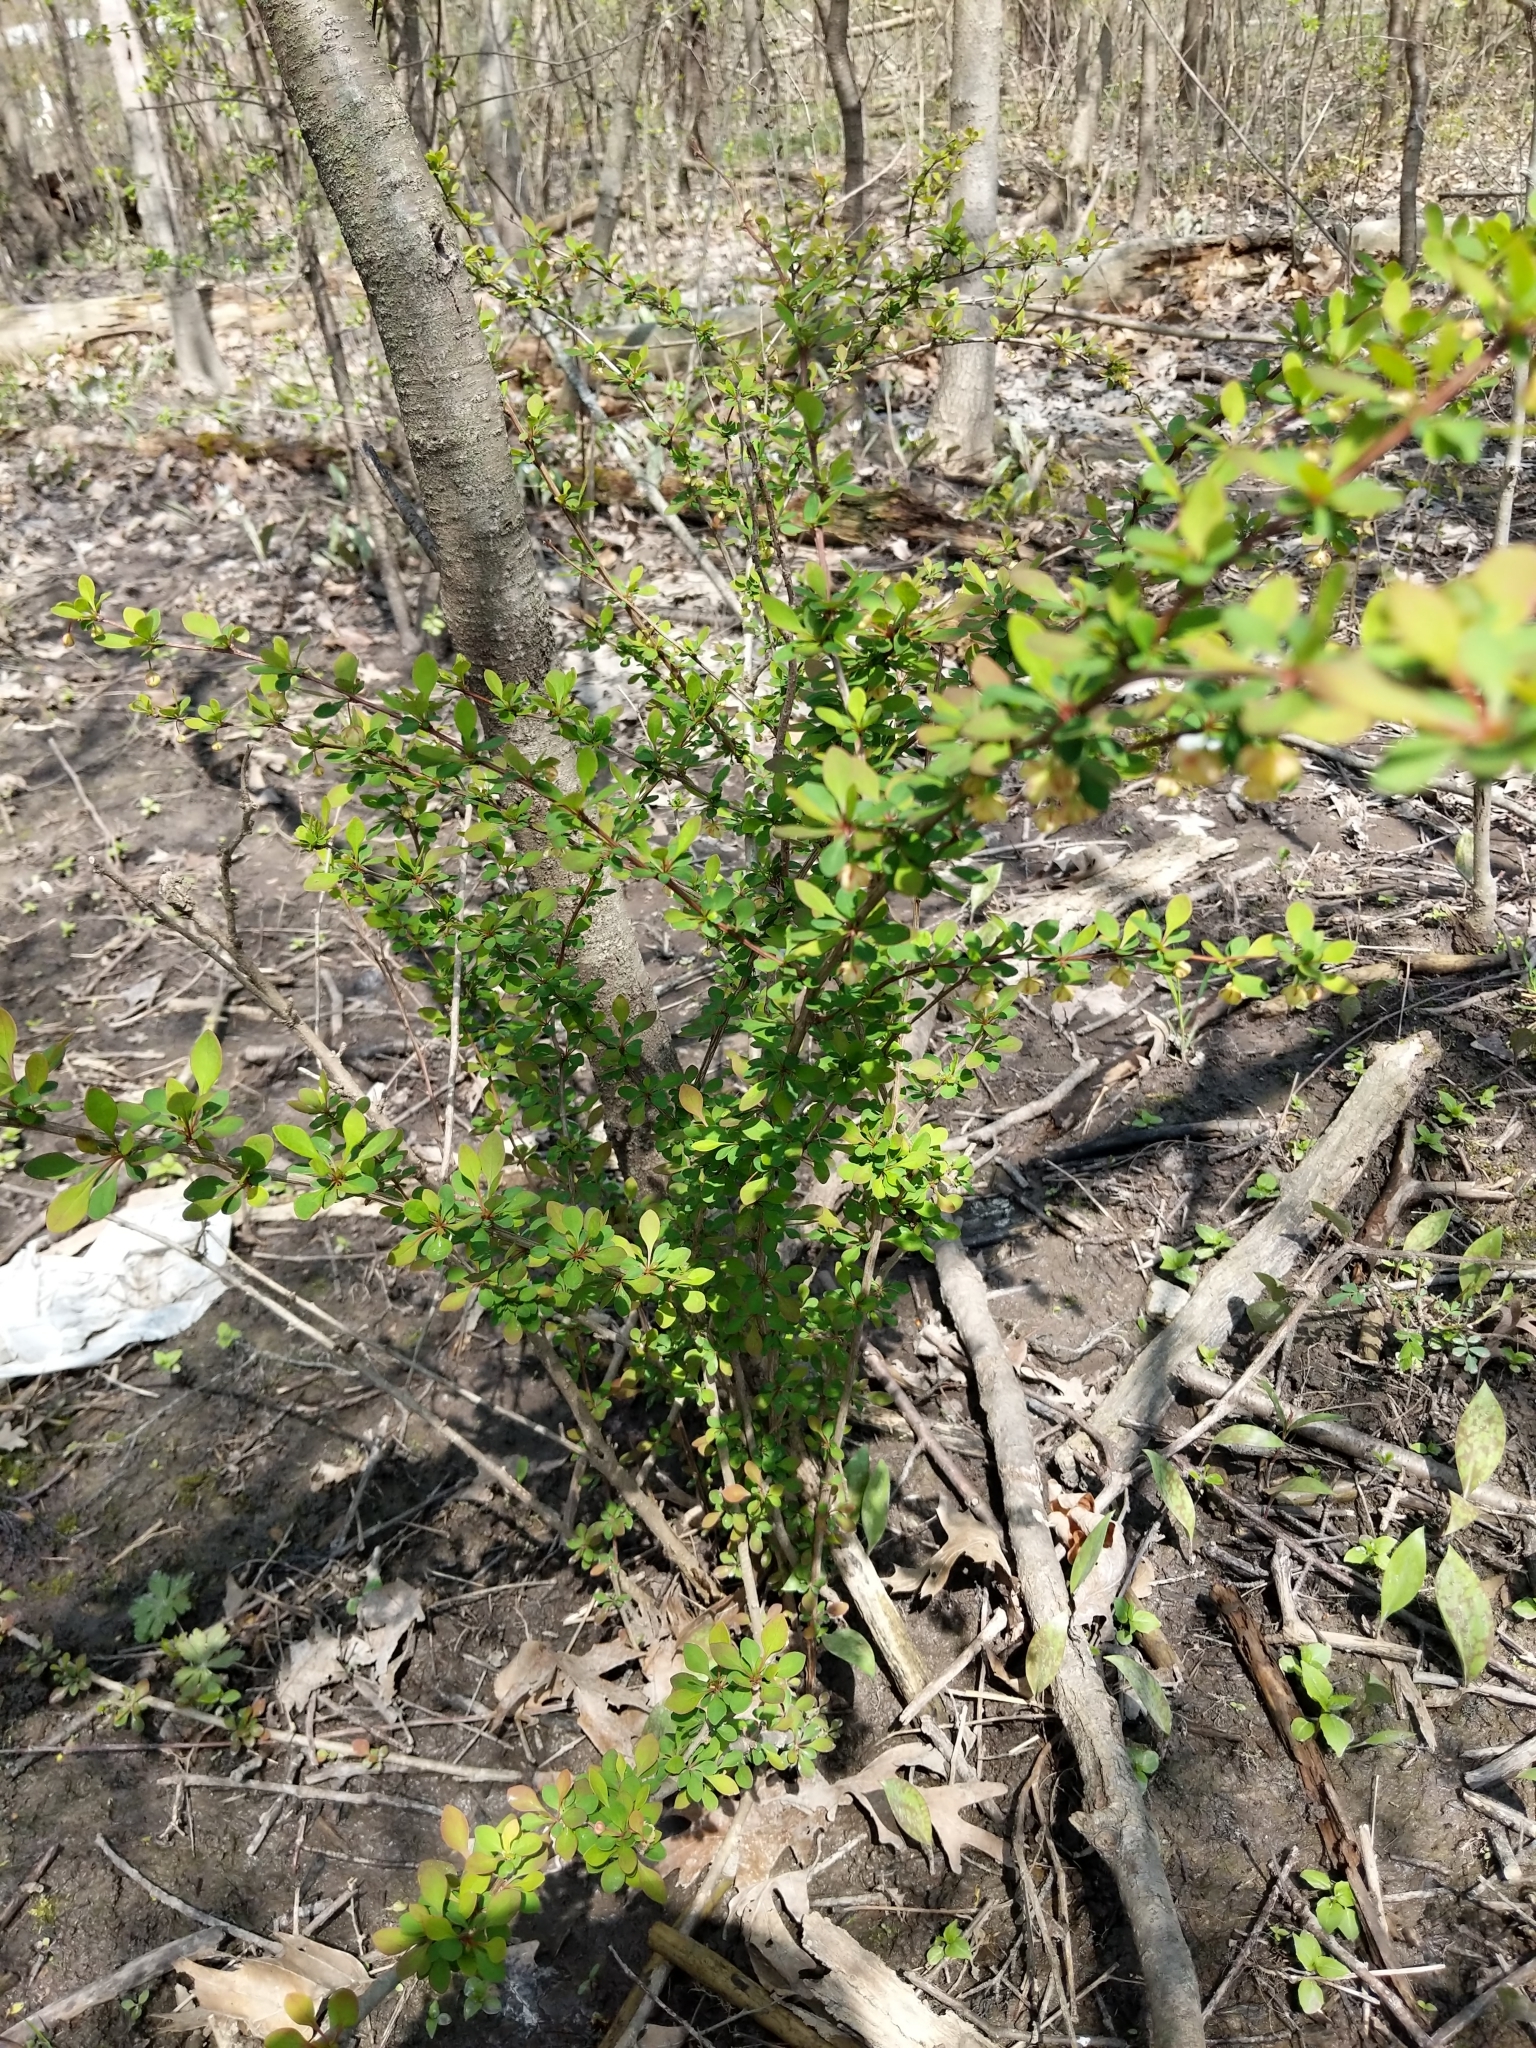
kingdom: Plantae
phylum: Tracheophyta
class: Magnoliopsida
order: Ranunculales
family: Berberidaceae
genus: Berberis
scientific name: Berberis thunbergii
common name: Japanese barberry
